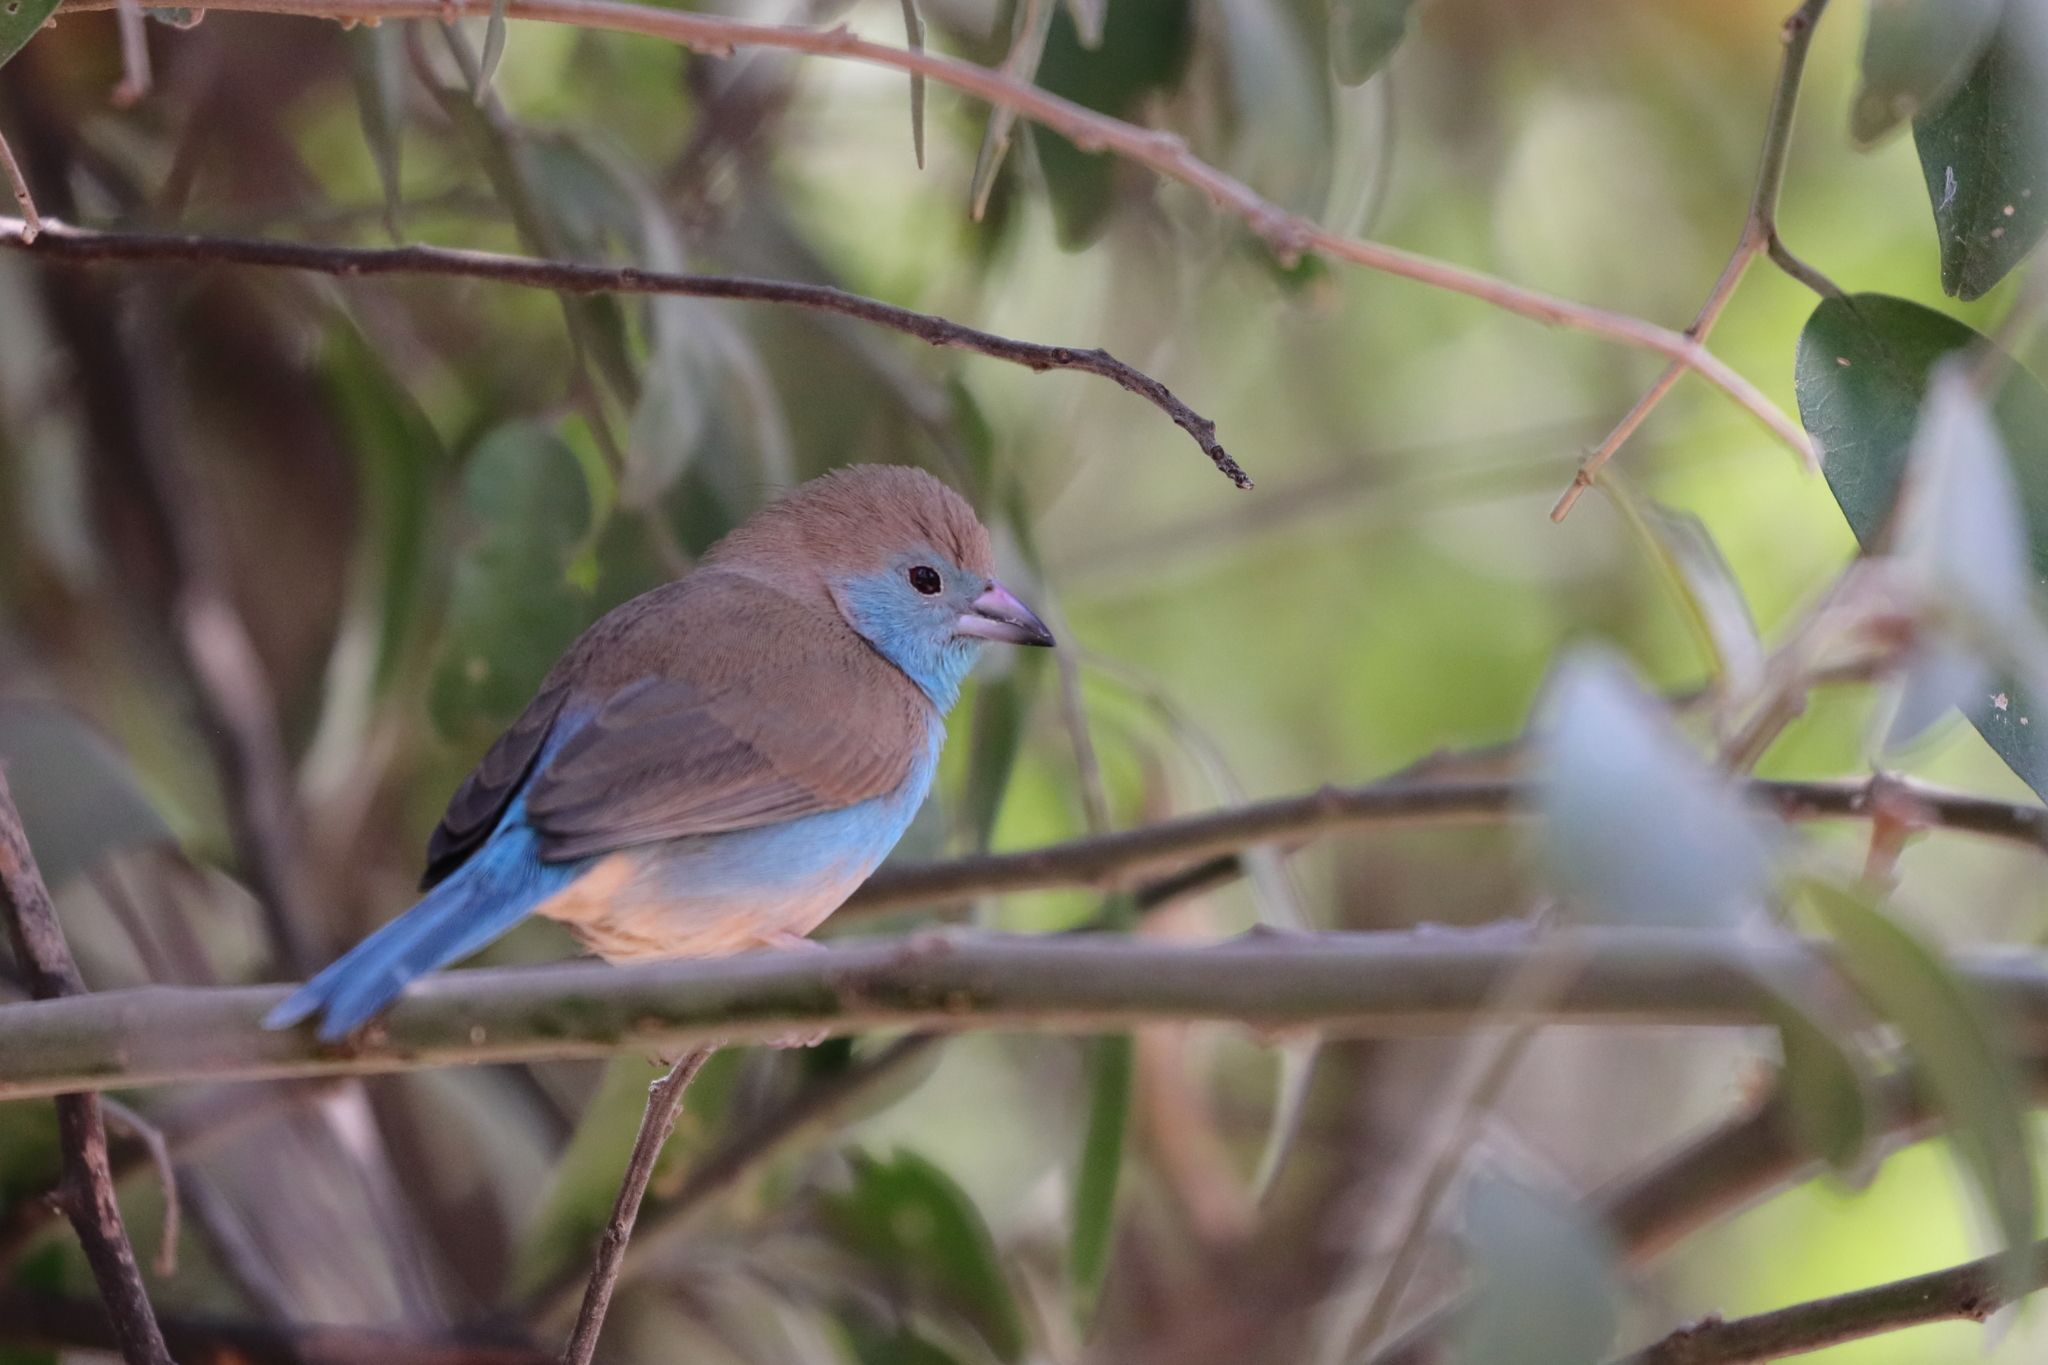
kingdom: Animalia
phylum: Chordata
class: Aves
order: Passeriformes
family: Estrildidae
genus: Uraeginthus
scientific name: Uraeginthus angolensis
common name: Blue waxbill
